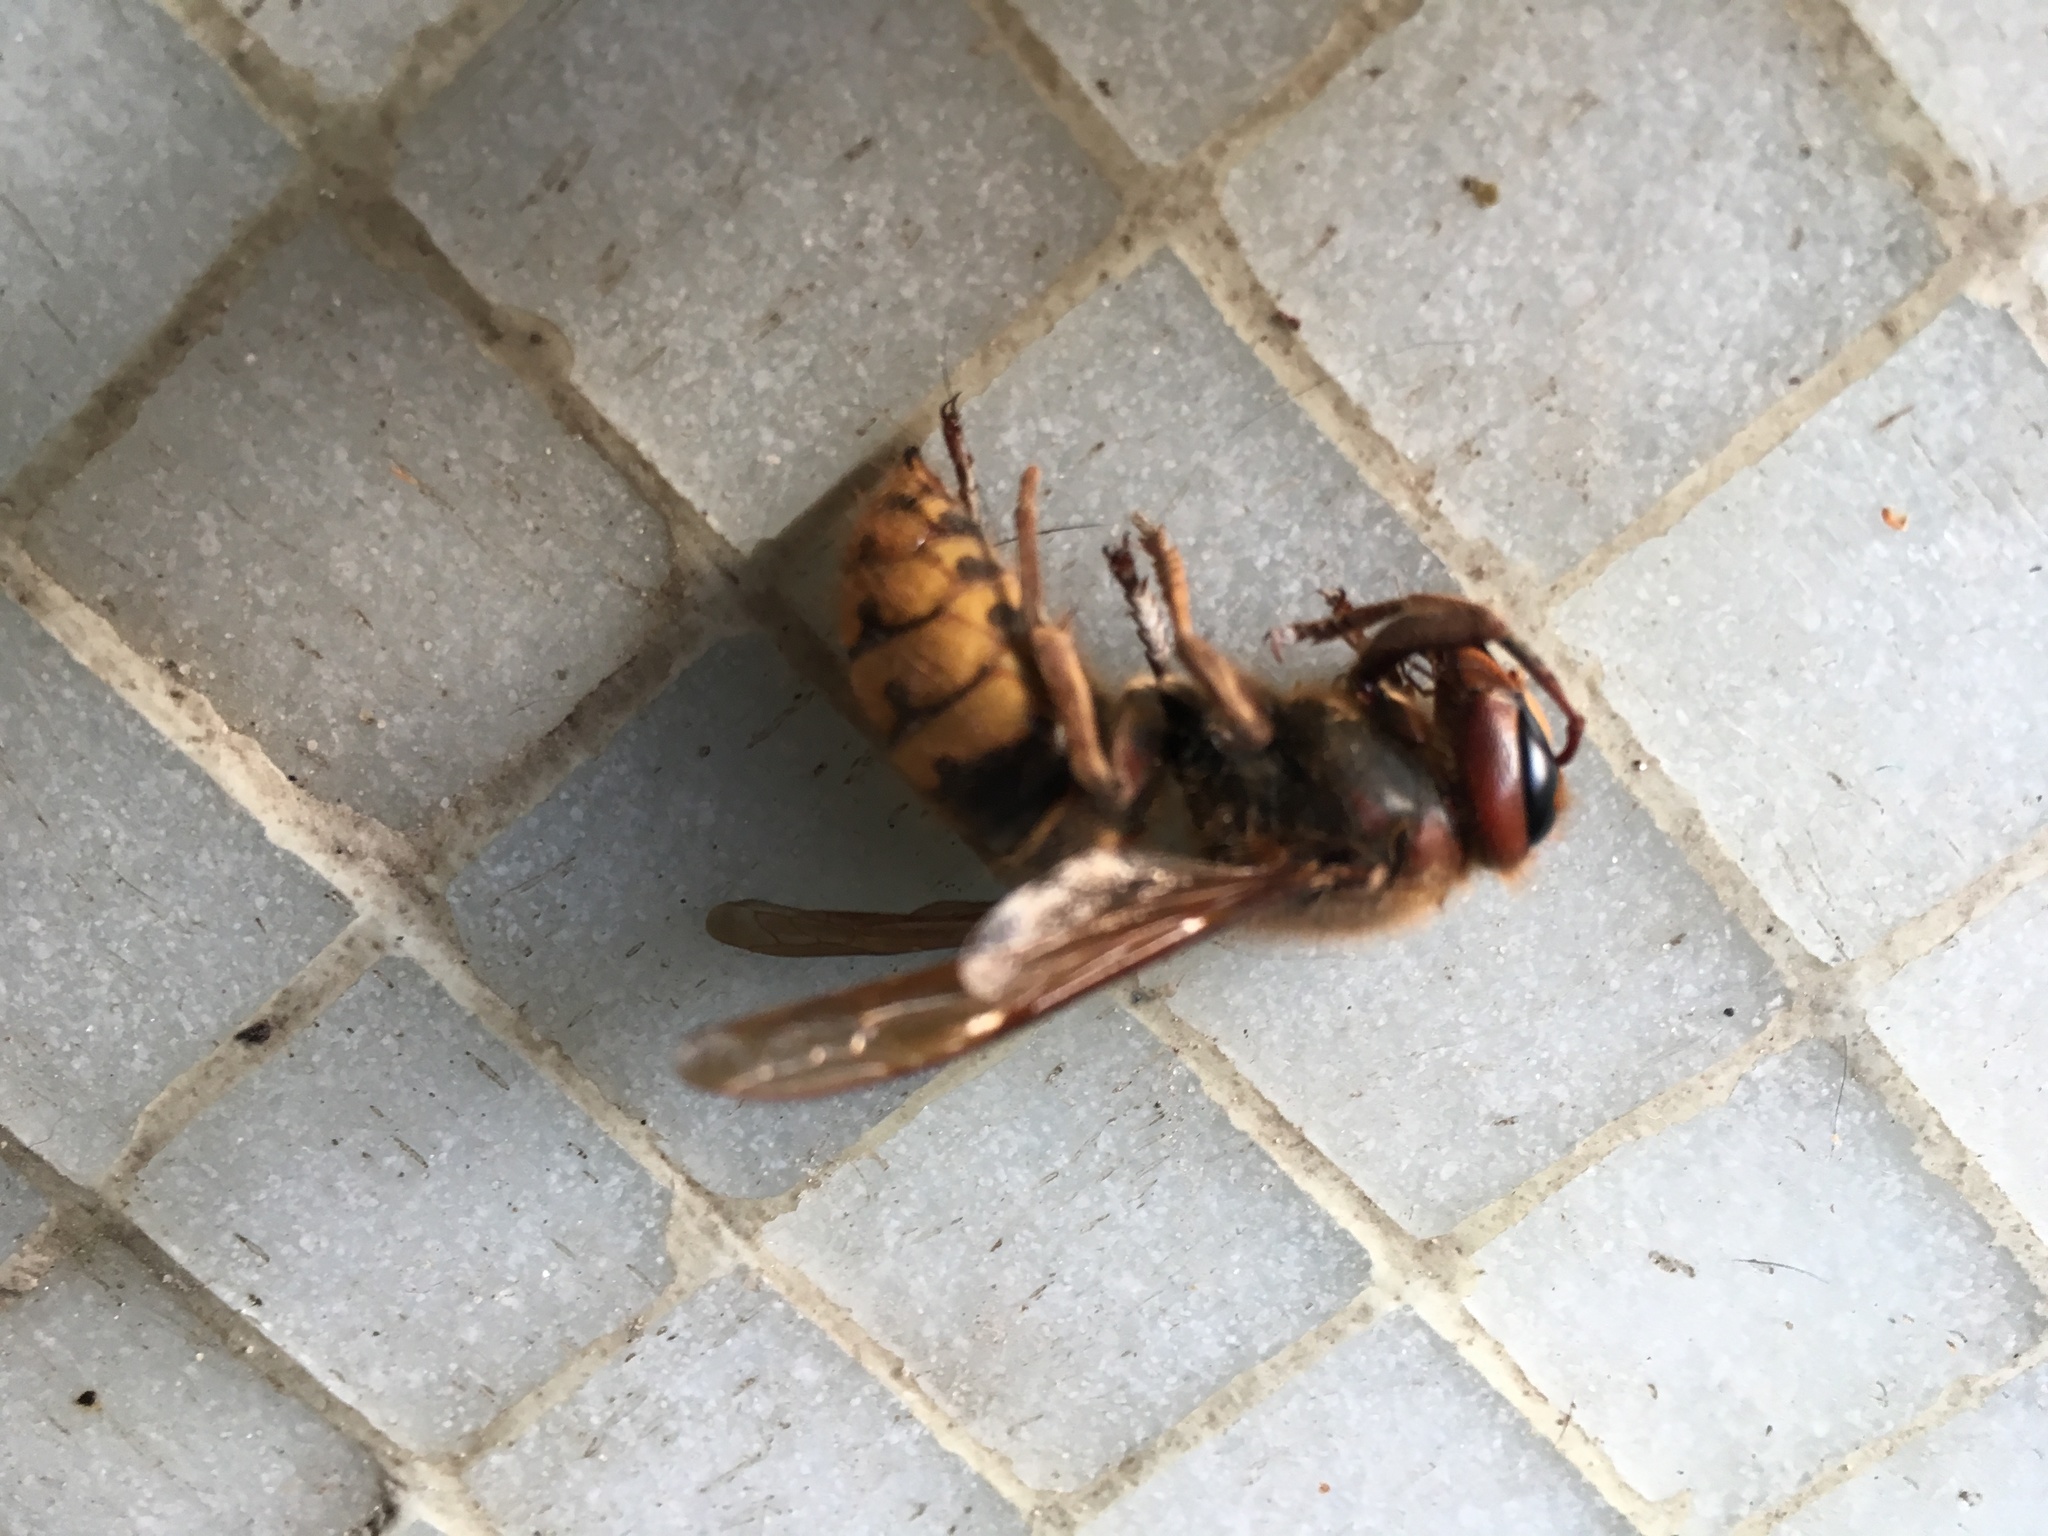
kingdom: Animalia
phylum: Arthropoda
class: Insecta
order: Hymenoptera
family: Vespidae
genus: Vespa
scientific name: Vespa crabro
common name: Hornet
